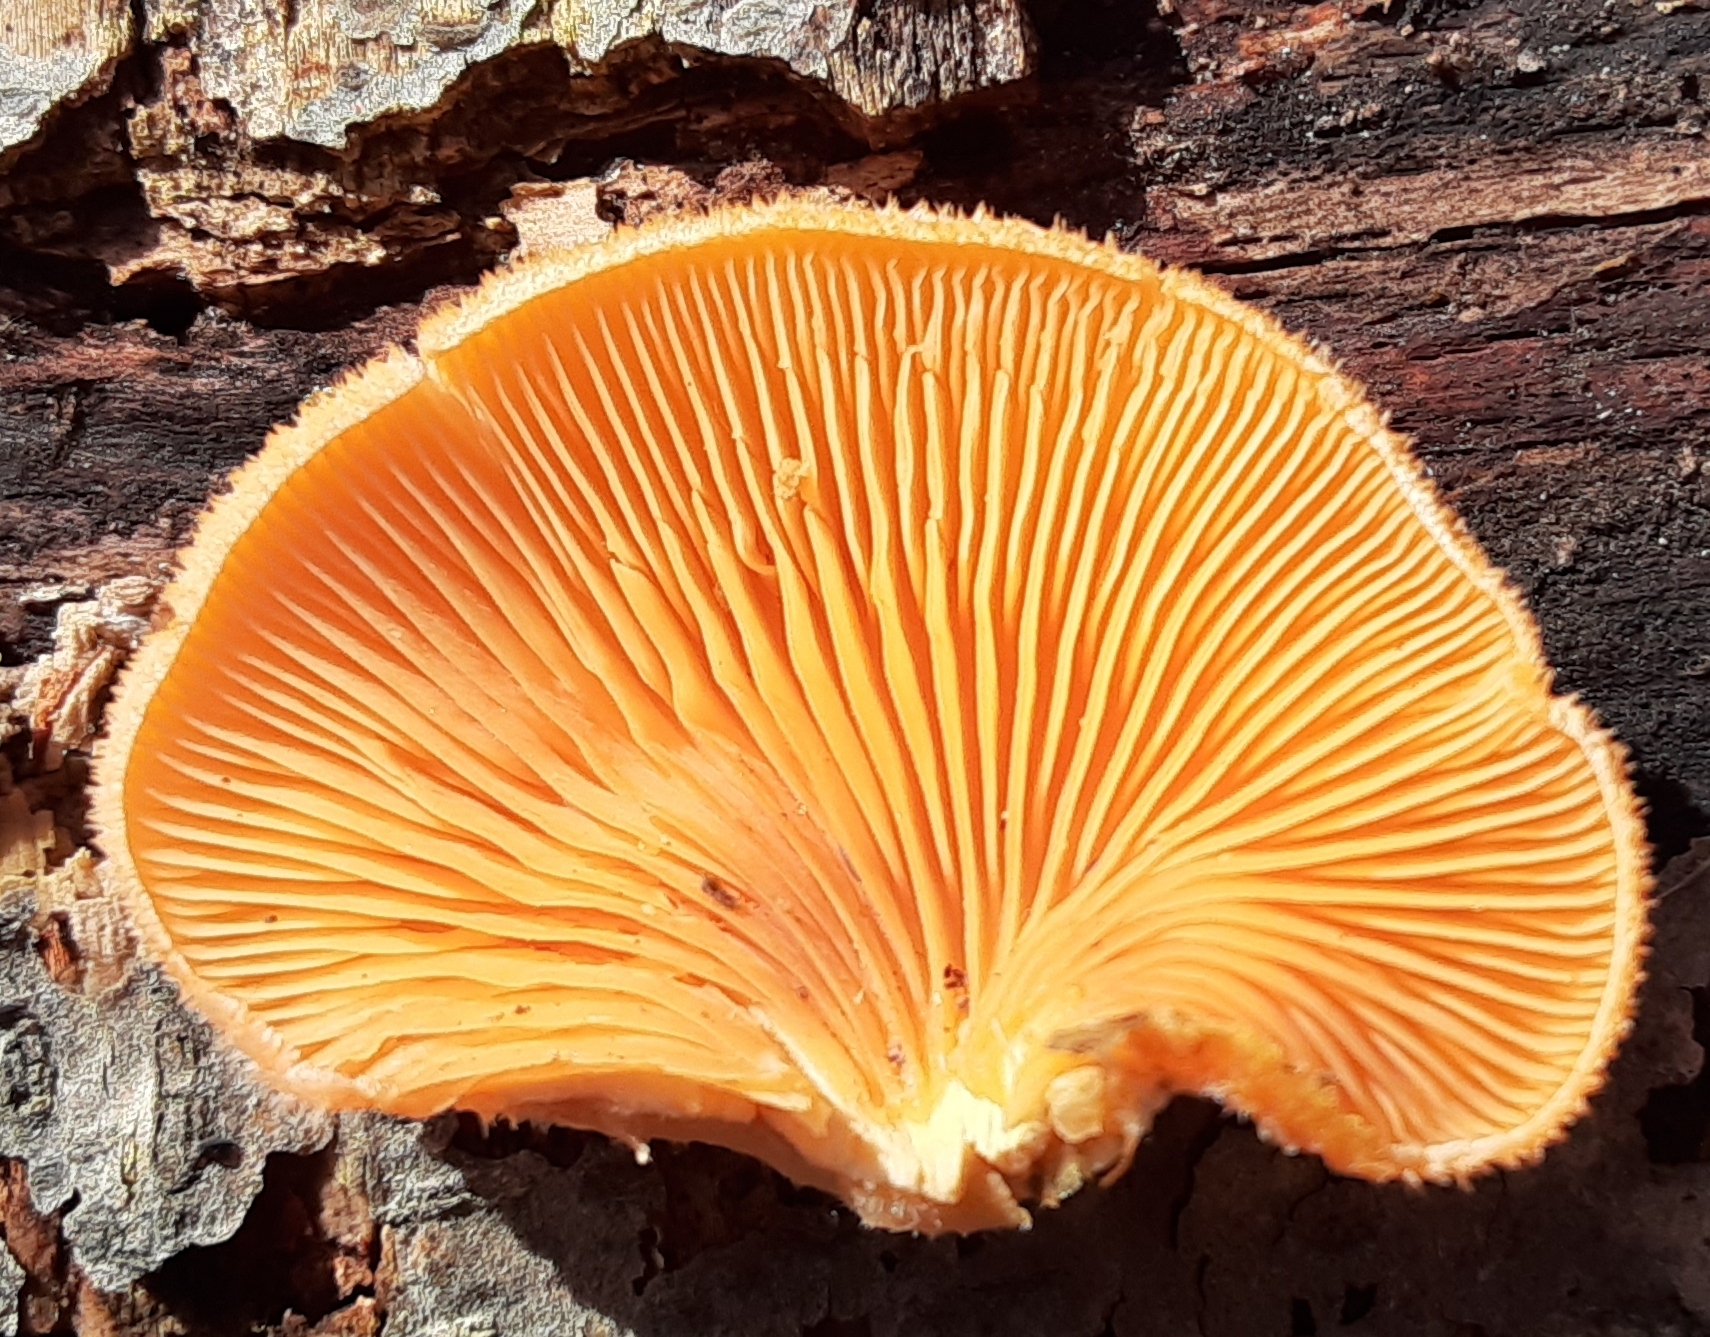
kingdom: Fungi
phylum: Basidiomycota
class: Agaricomycetes
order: Agaricales
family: Phyllotopsidaceae
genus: Phyllotopsis
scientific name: Phyllotopsis nidulans
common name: Orange mock oyster
